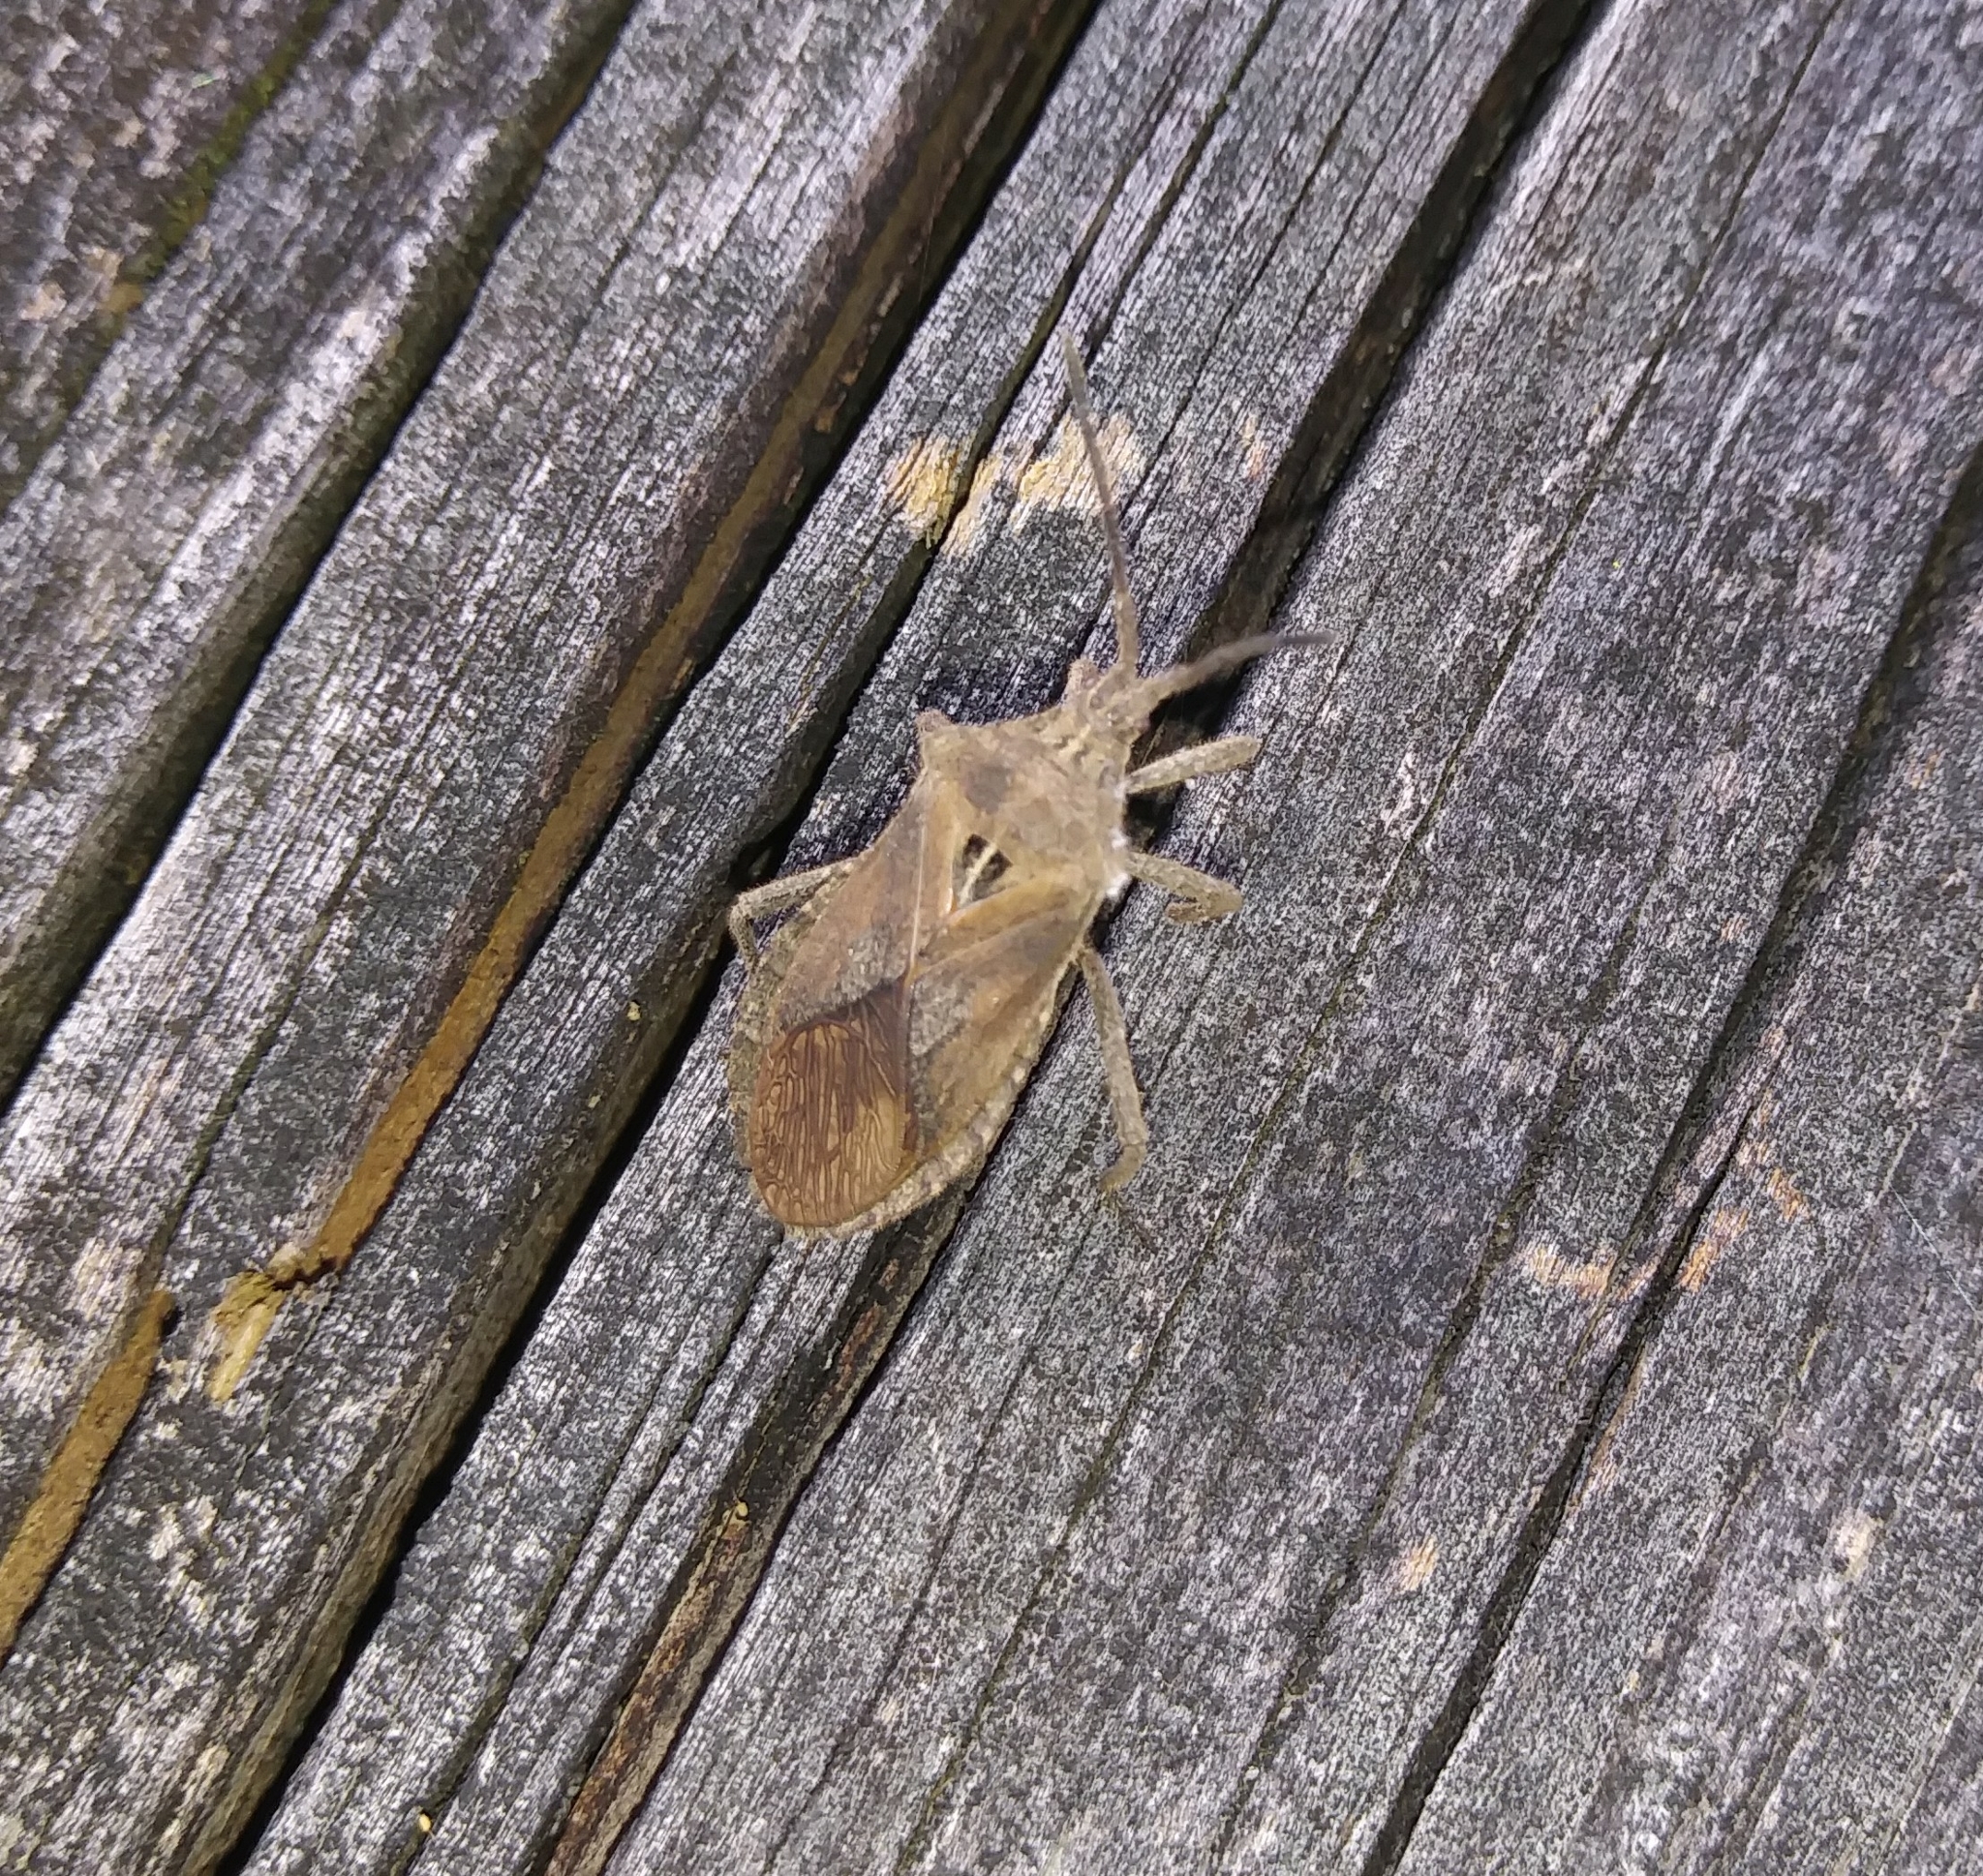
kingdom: Animalia
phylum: Arthropoda
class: Insecta
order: Hemiptera
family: Coreidae
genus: Eubule
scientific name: Eubule spartocerana
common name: Leaf-footed bug
